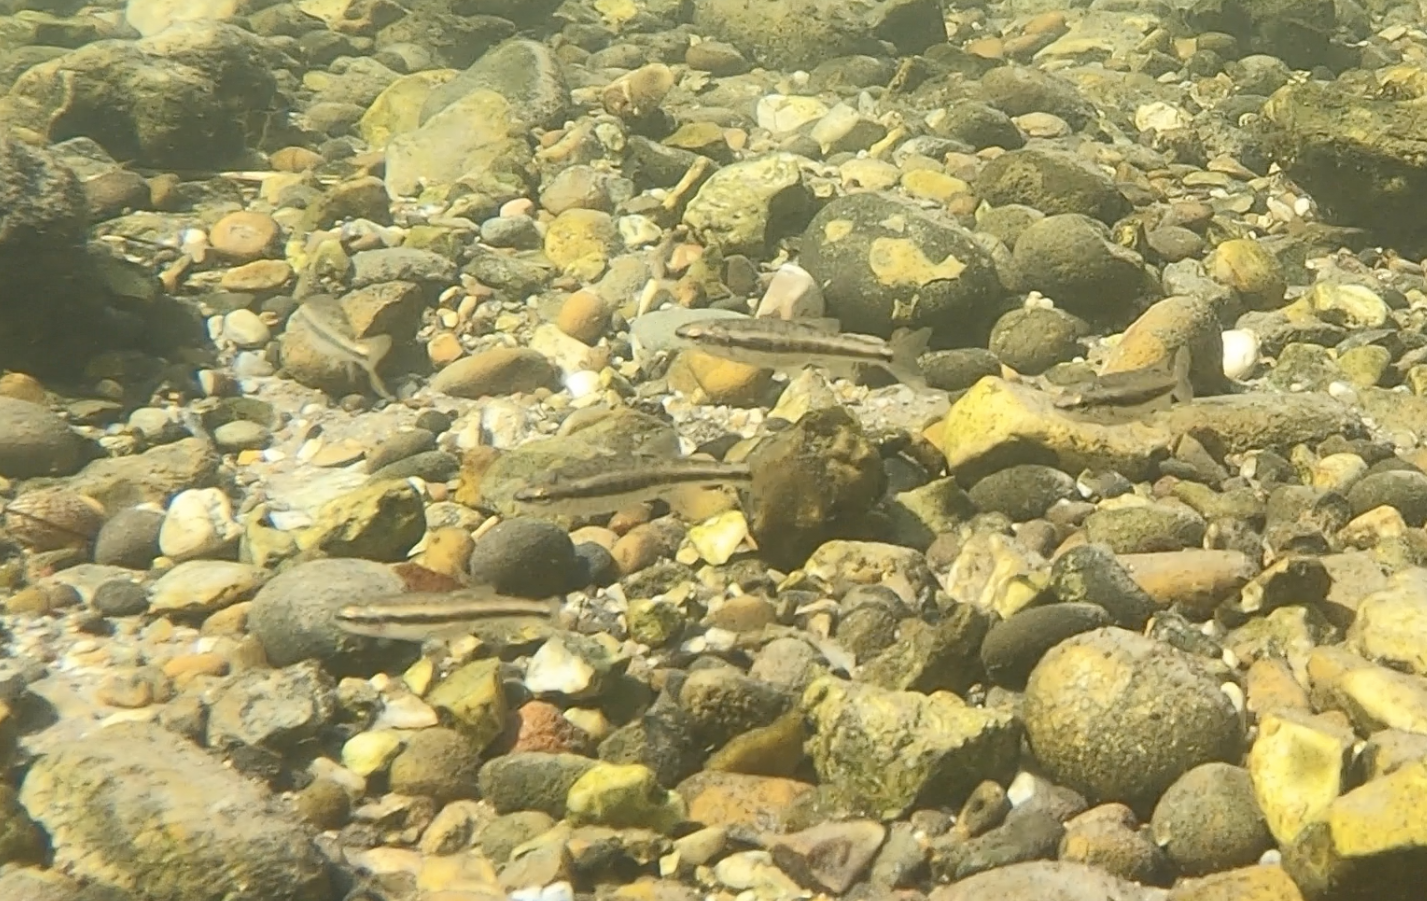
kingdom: Animalia
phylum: Chordata
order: Cypriniformes
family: Cyprinidae
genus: Phoxinus
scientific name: Phoxinus phoxinus
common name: Minnow
